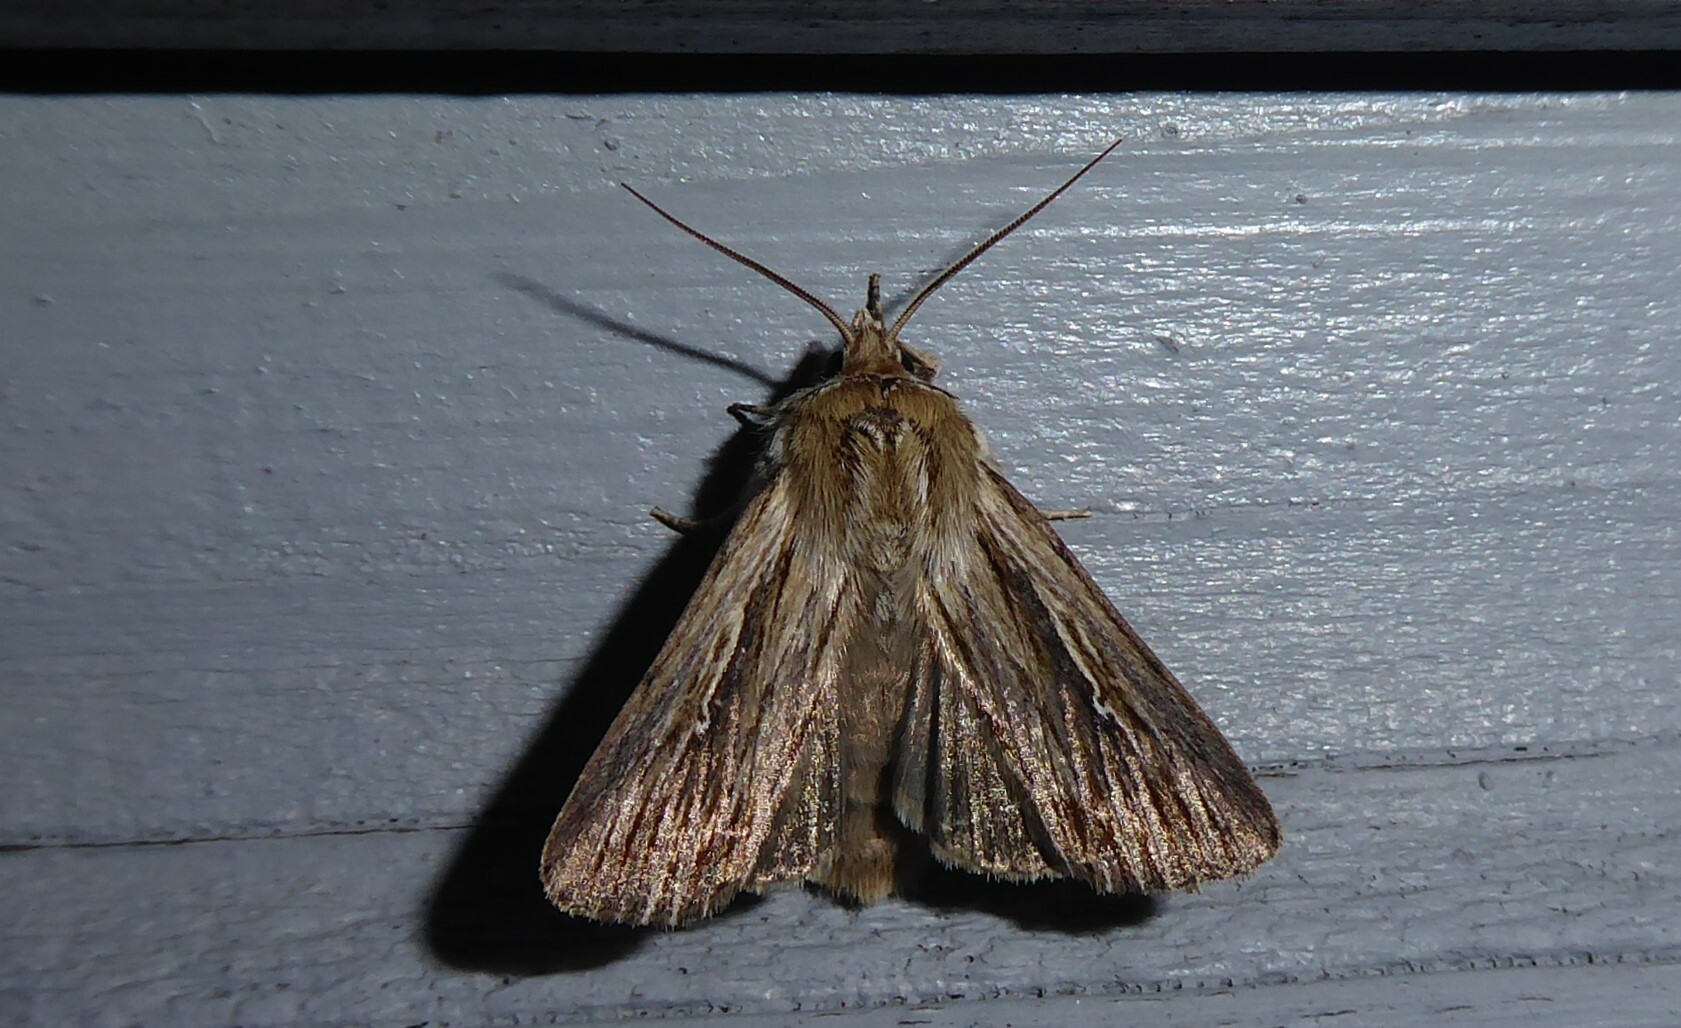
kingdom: Animalia
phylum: Arthropoda
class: Insecta
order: Lepidoptera
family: Noctuidae
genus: Persectania
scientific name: Persectania aversa
